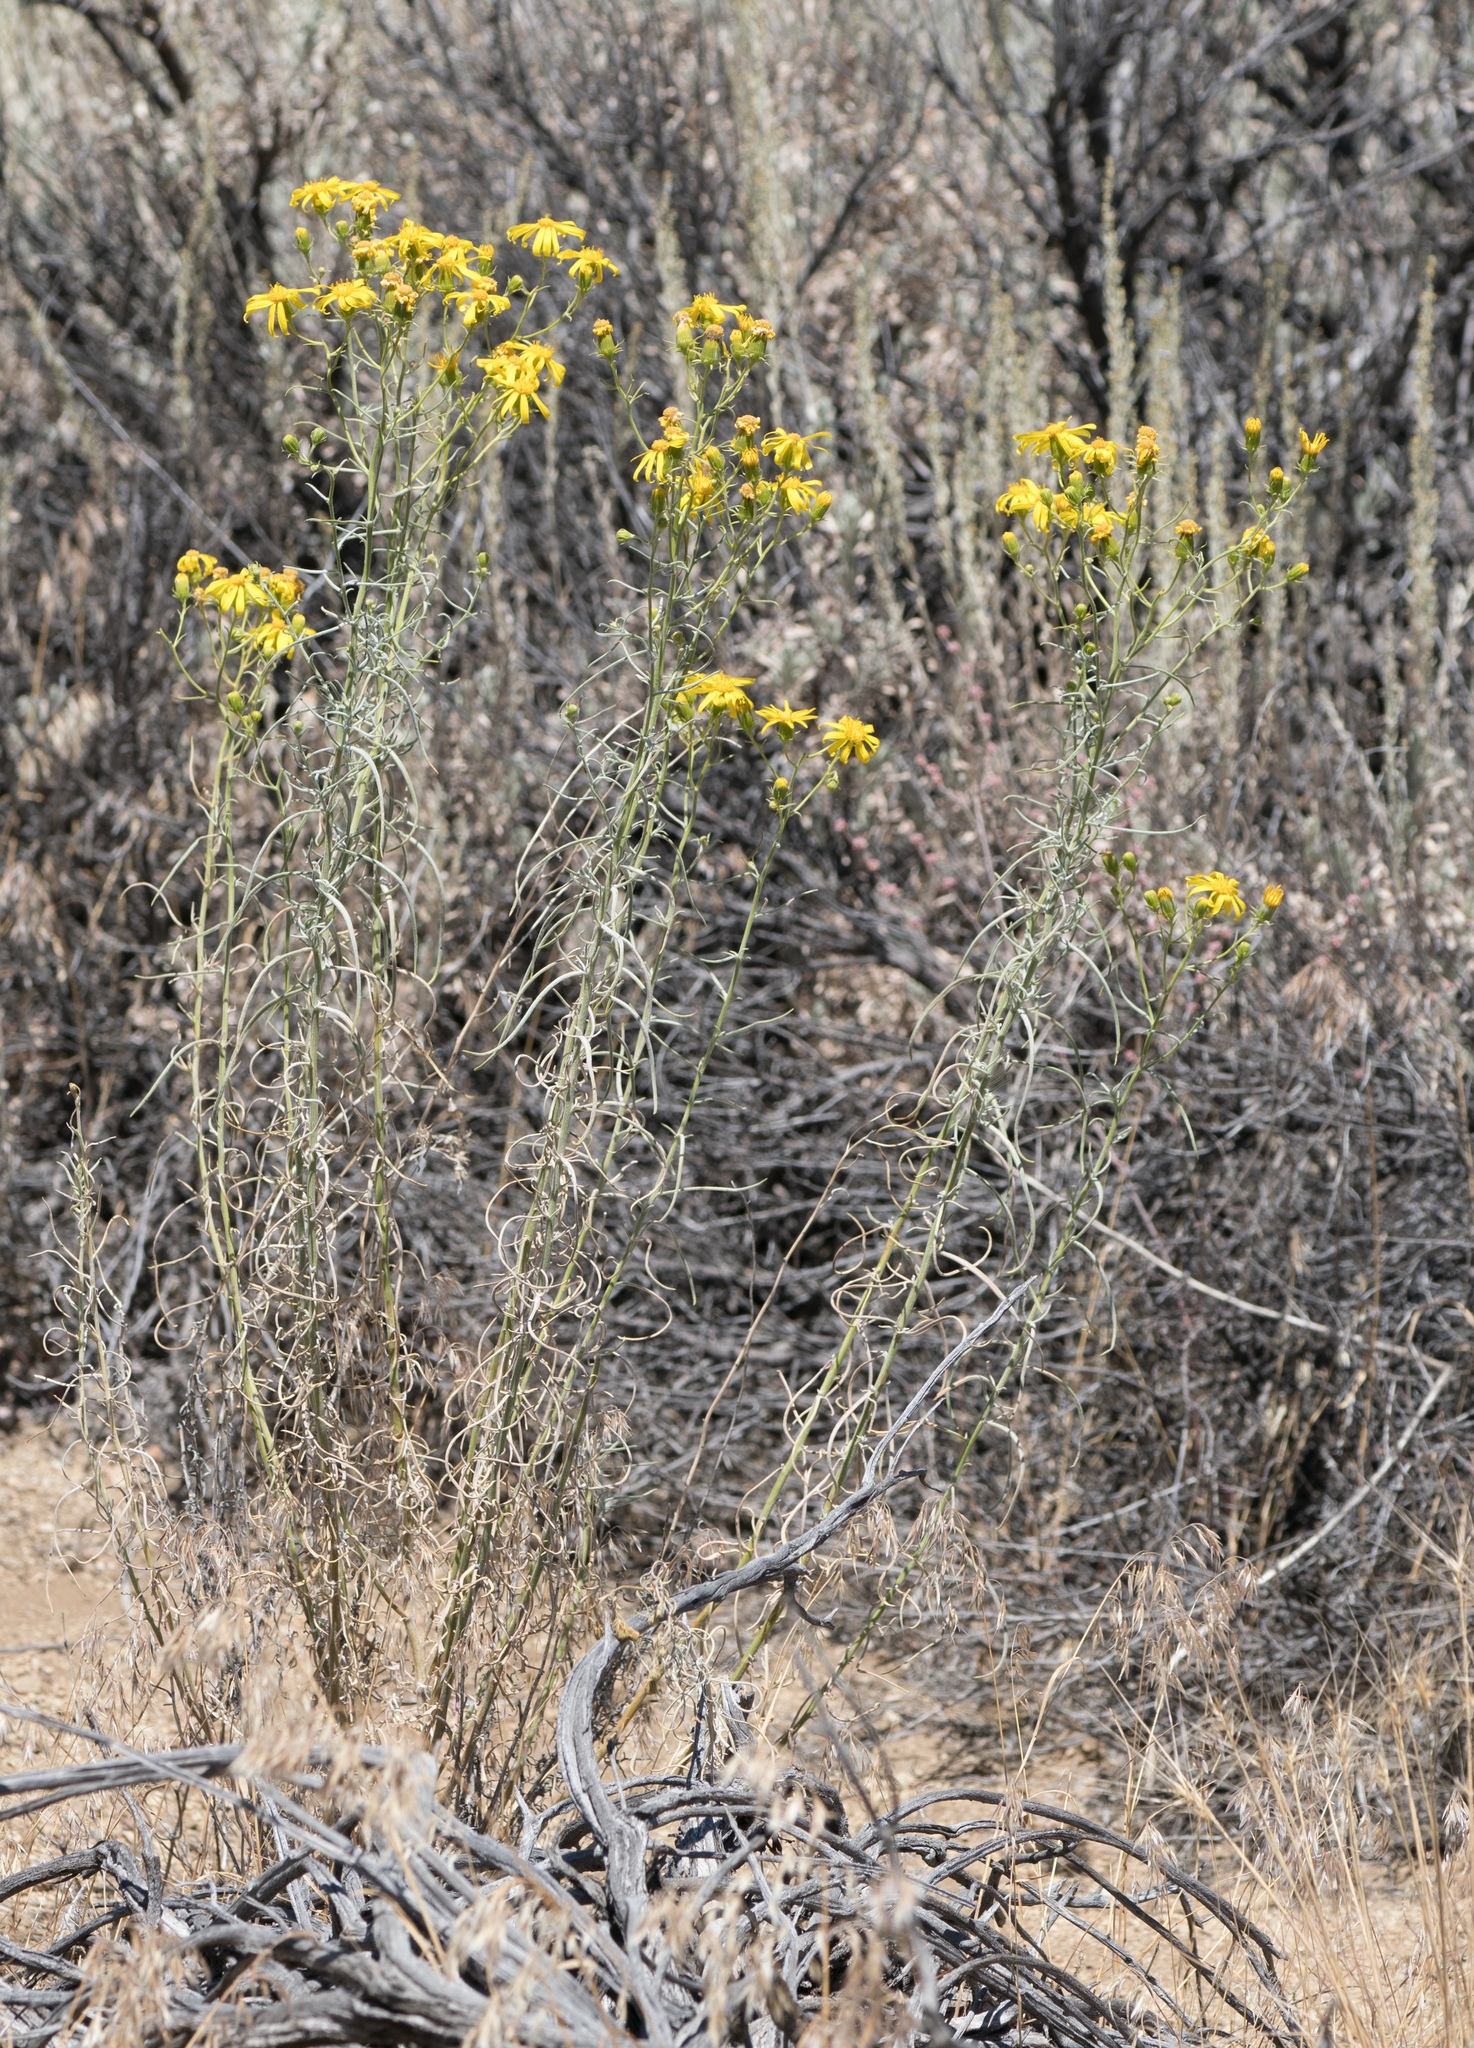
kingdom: Plantae
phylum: Tracheophyta
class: Magnoliopsida
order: Asterales
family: Asteraceae
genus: Senecio
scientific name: Senecio flaccidus
